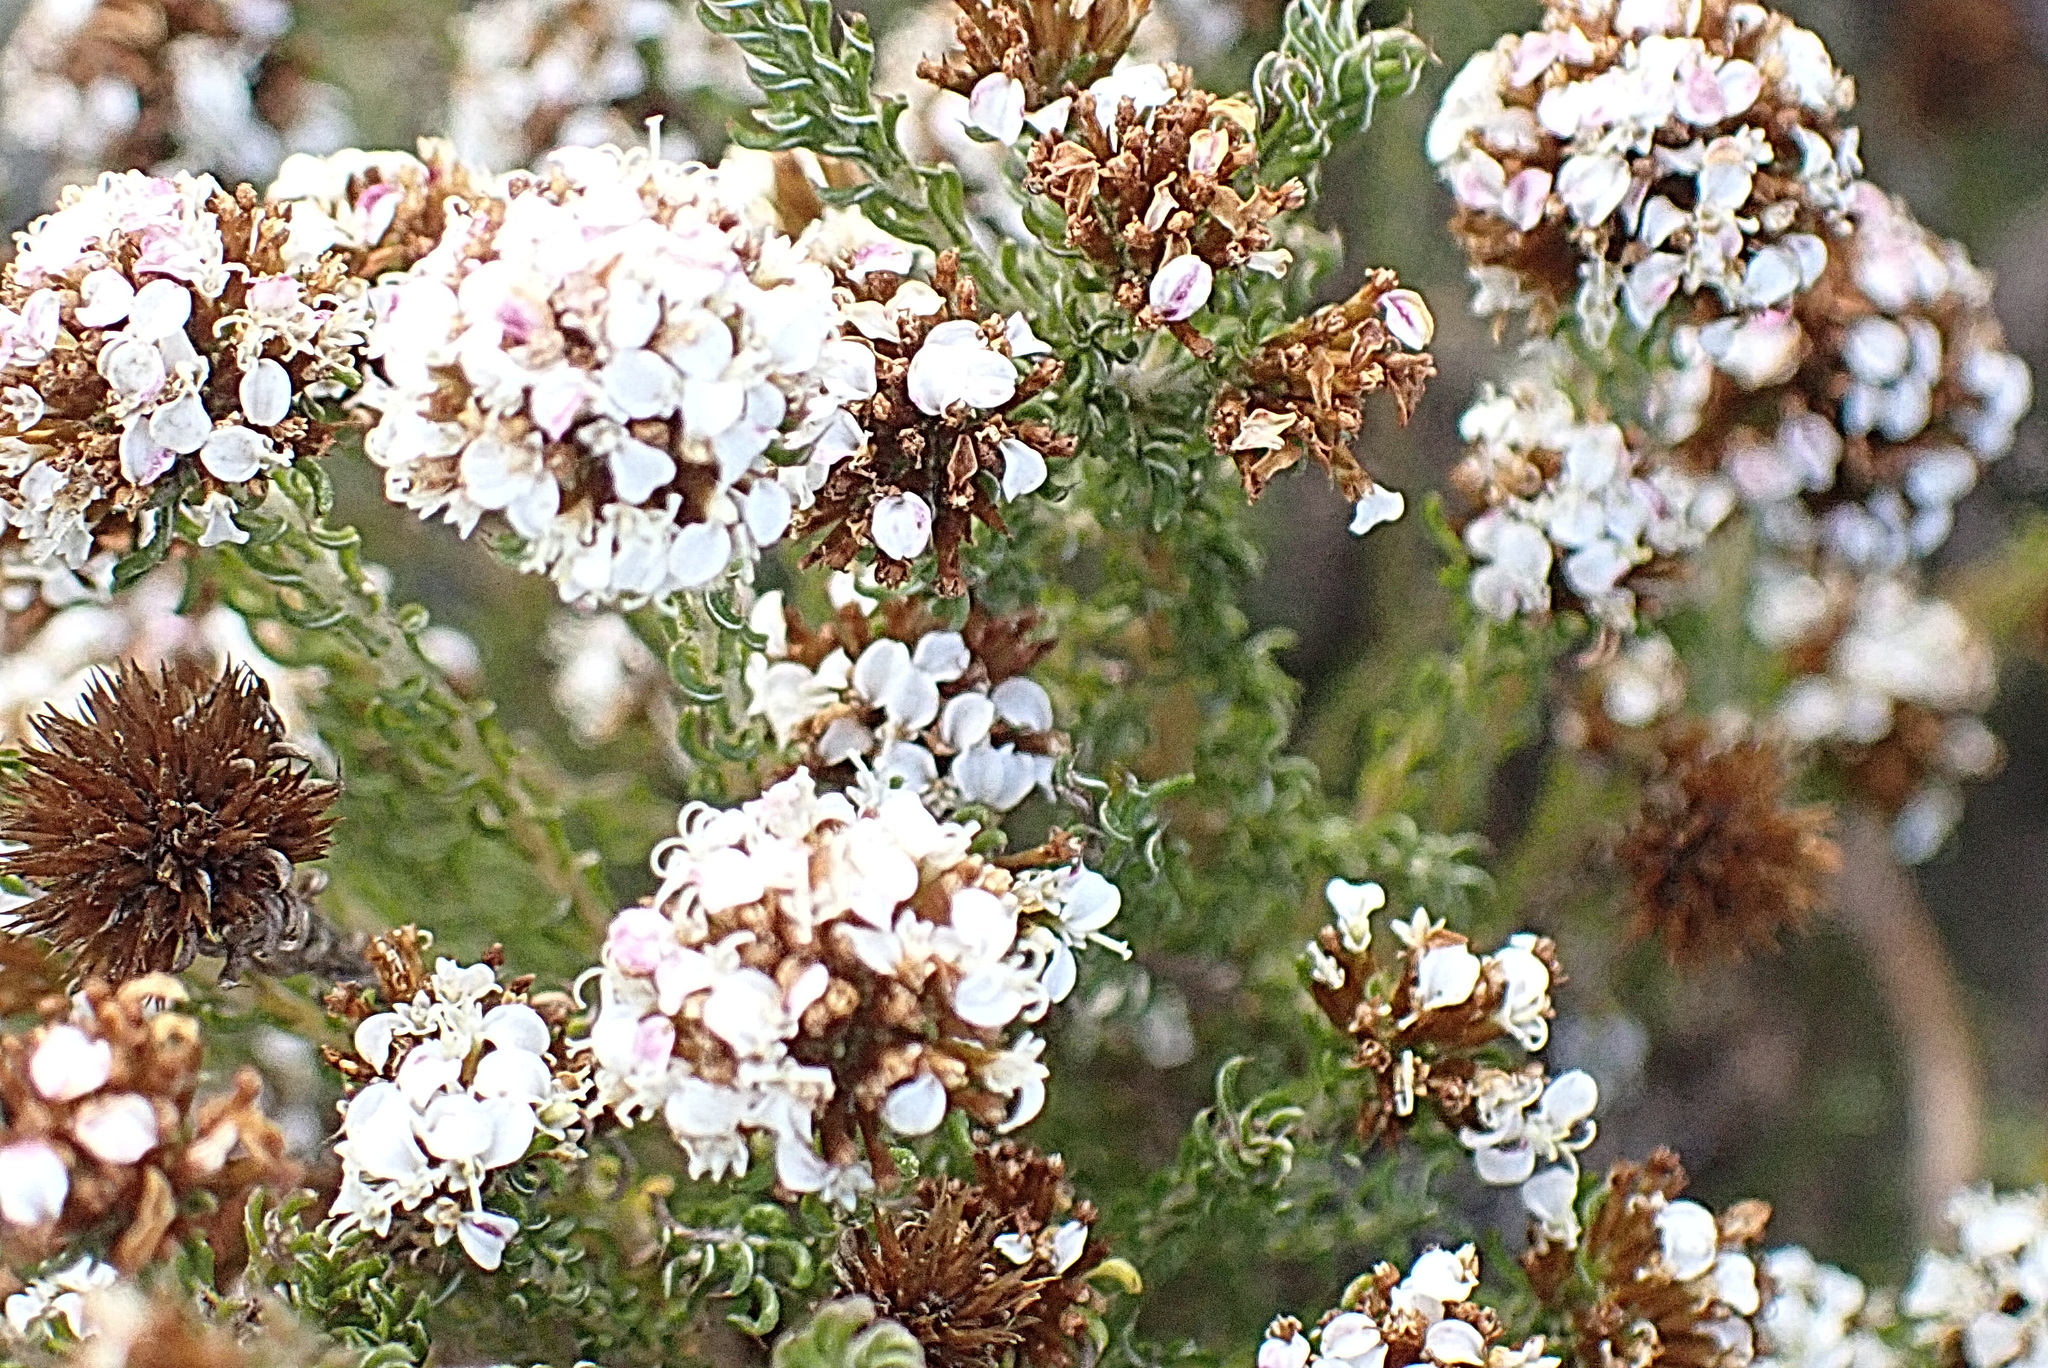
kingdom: Plantae
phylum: Tracheophyta
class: Magnoliopsida
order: Asterales
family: Asteraceae
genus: Disparago
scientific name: Disparago anomala
